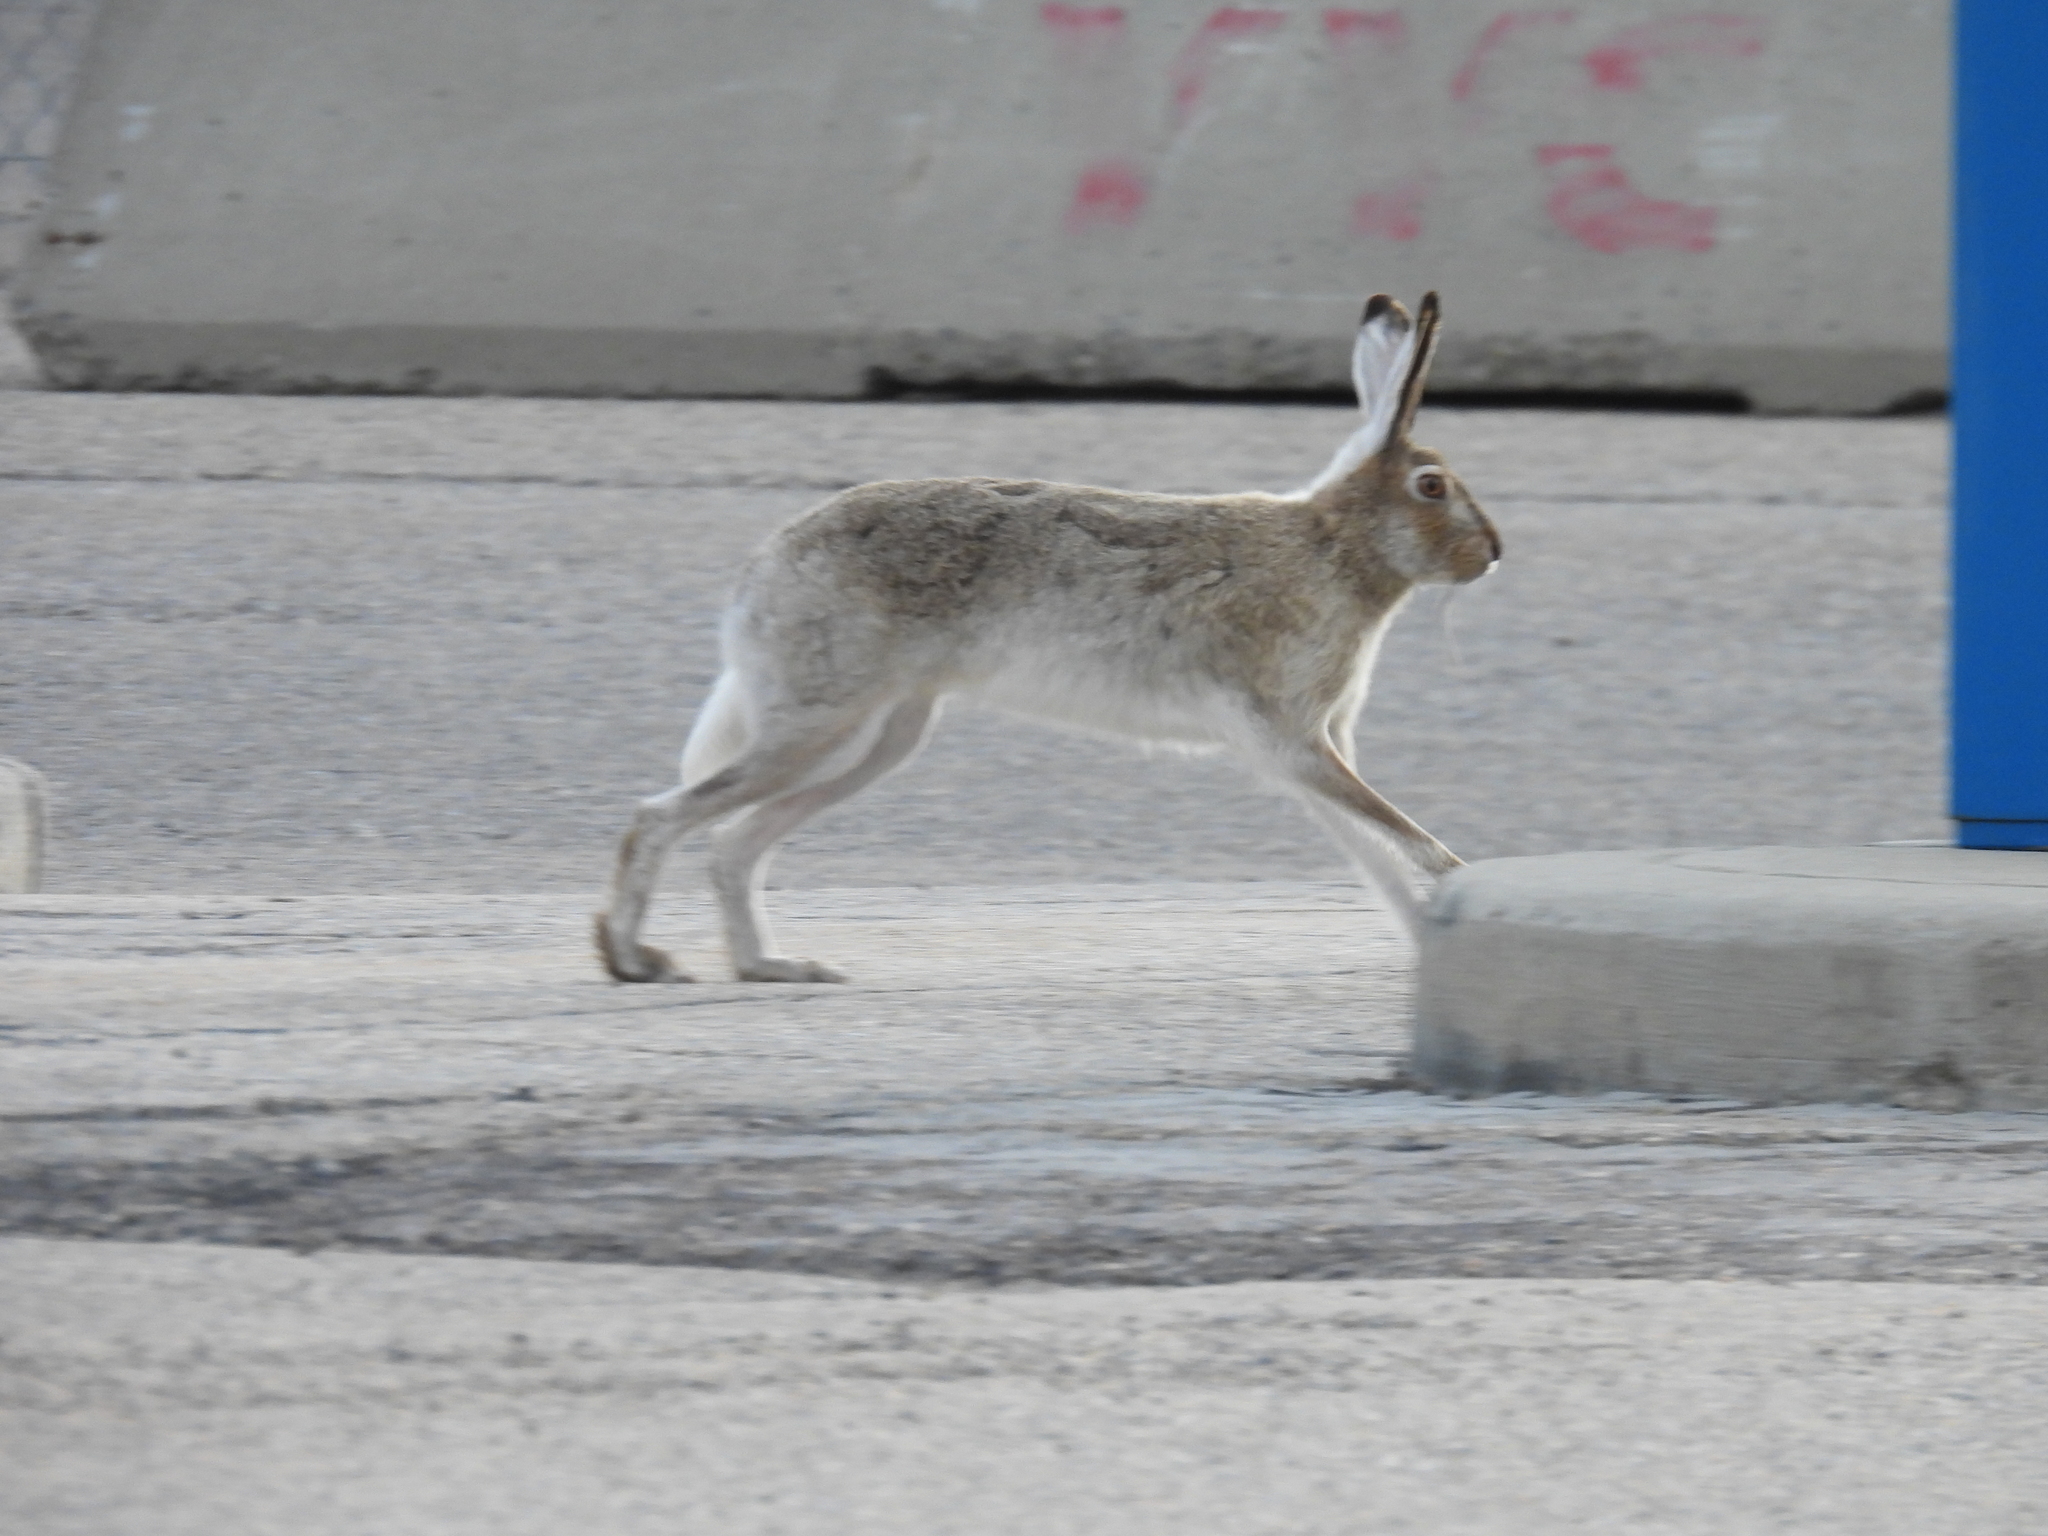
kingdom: Animalia
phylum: Chordata
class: Mammalia
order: Lagomorpha
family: Leporidae
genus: Lepus
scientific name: Lepus townsendii
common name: White-tailed jackrabbit
